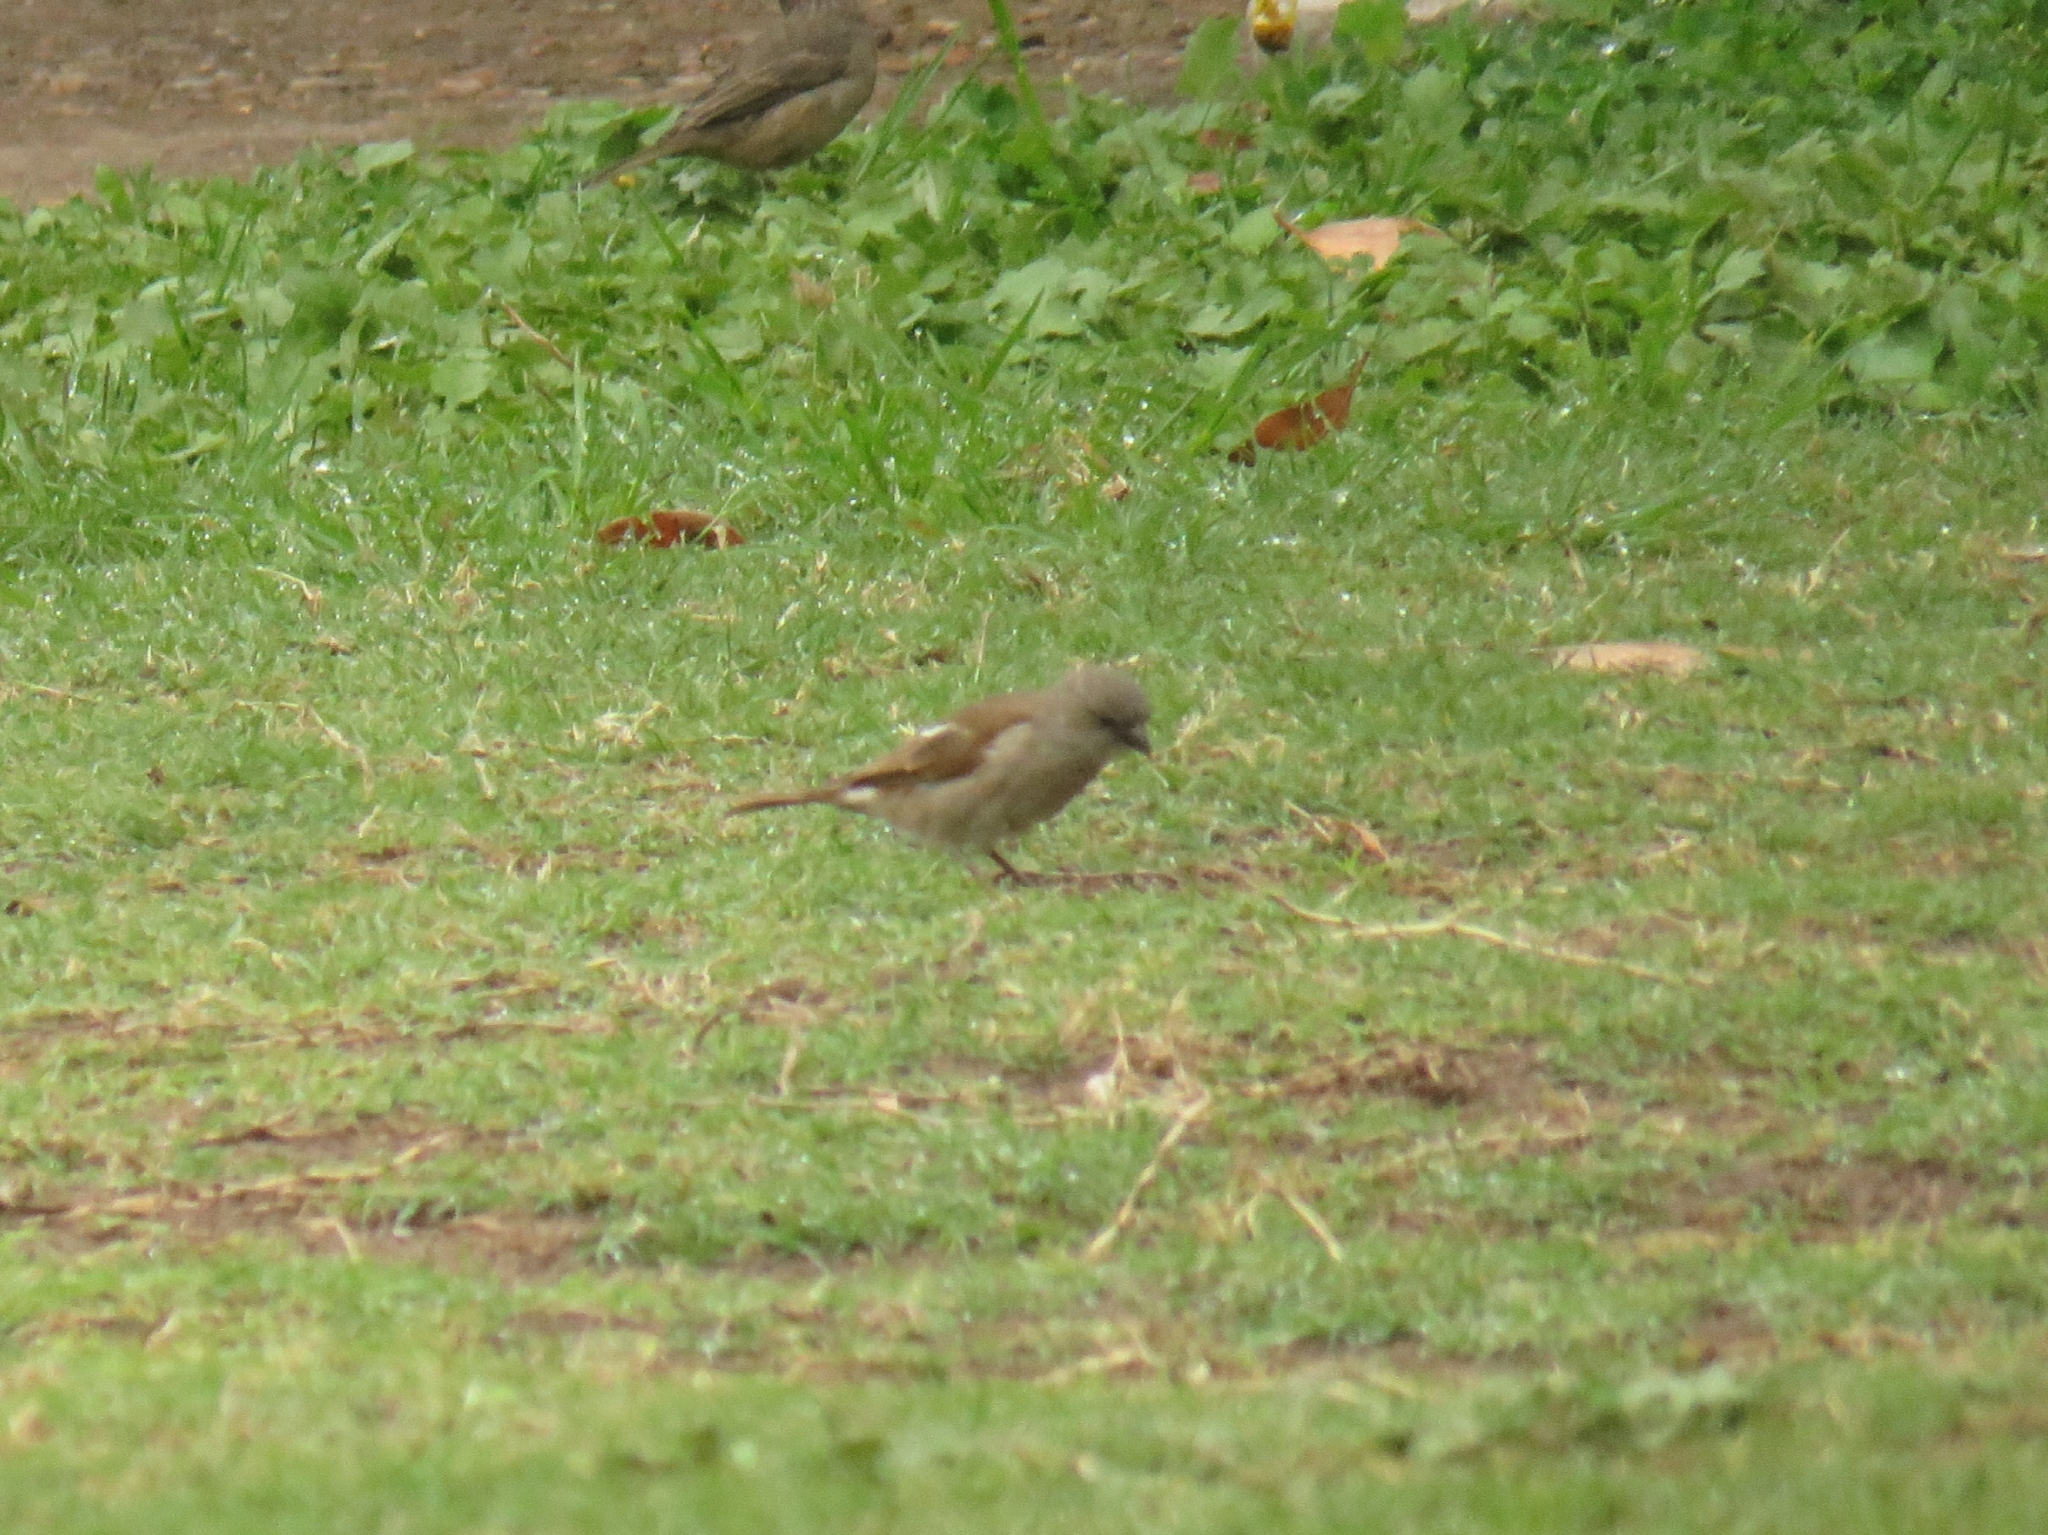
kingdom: Animalia
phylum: Chordata
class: Aves
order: Passeriformes
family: Passeridae
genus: Passer
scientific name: Passer diffusus
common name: Southern grey-headed sparrow
